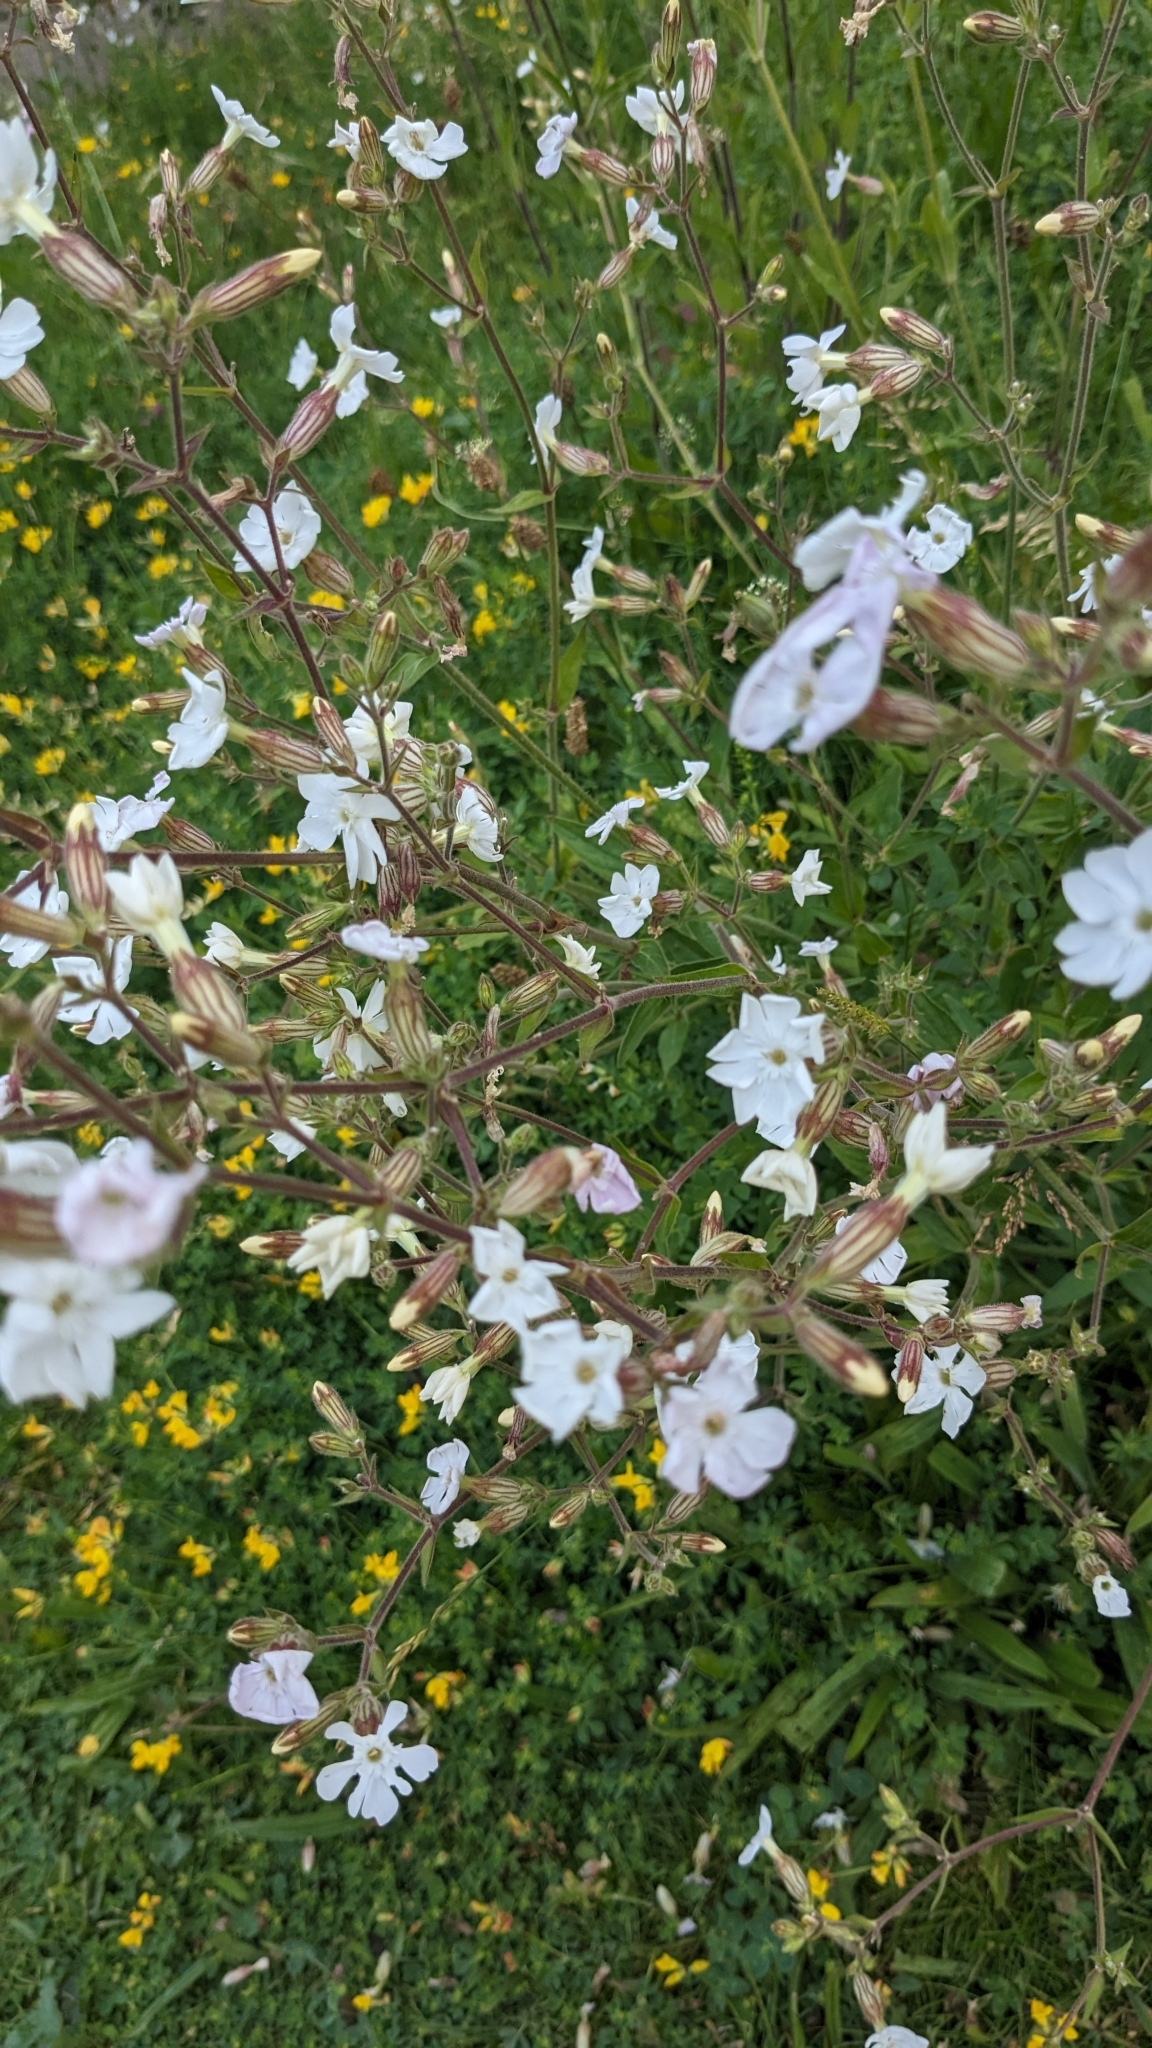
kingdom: Plantae
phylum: Tracheophyta
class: Magnoliopsida
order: Caryophyllales
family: Caryophyllaceae
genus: Silene
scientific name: Silene latifolia
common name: White campion
